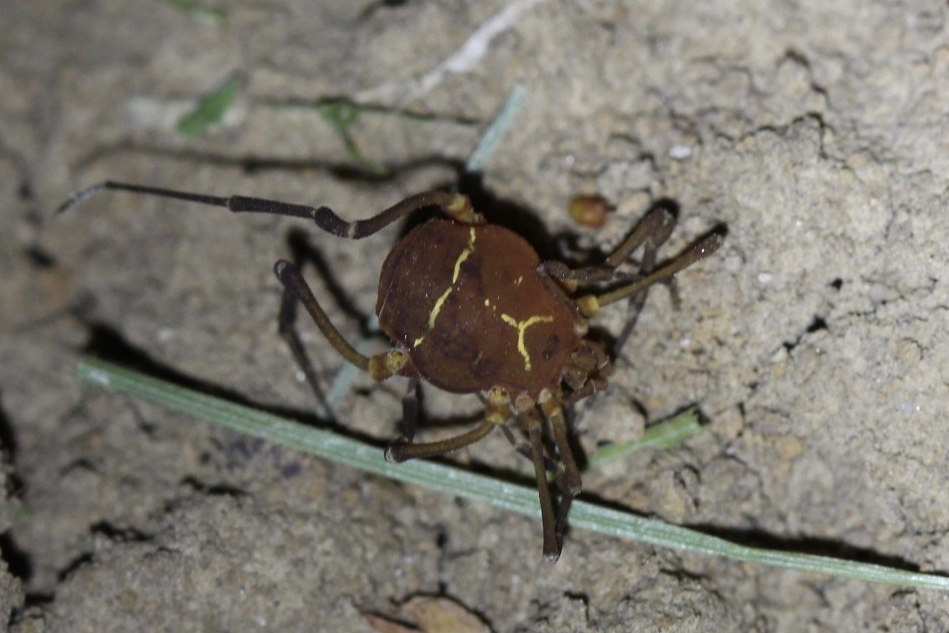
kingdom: Animalia
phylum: Arthropoda
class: Arachnida
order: Opiliones
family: Cosmetidae
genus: Libitioides
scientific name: Libitioides sayi
